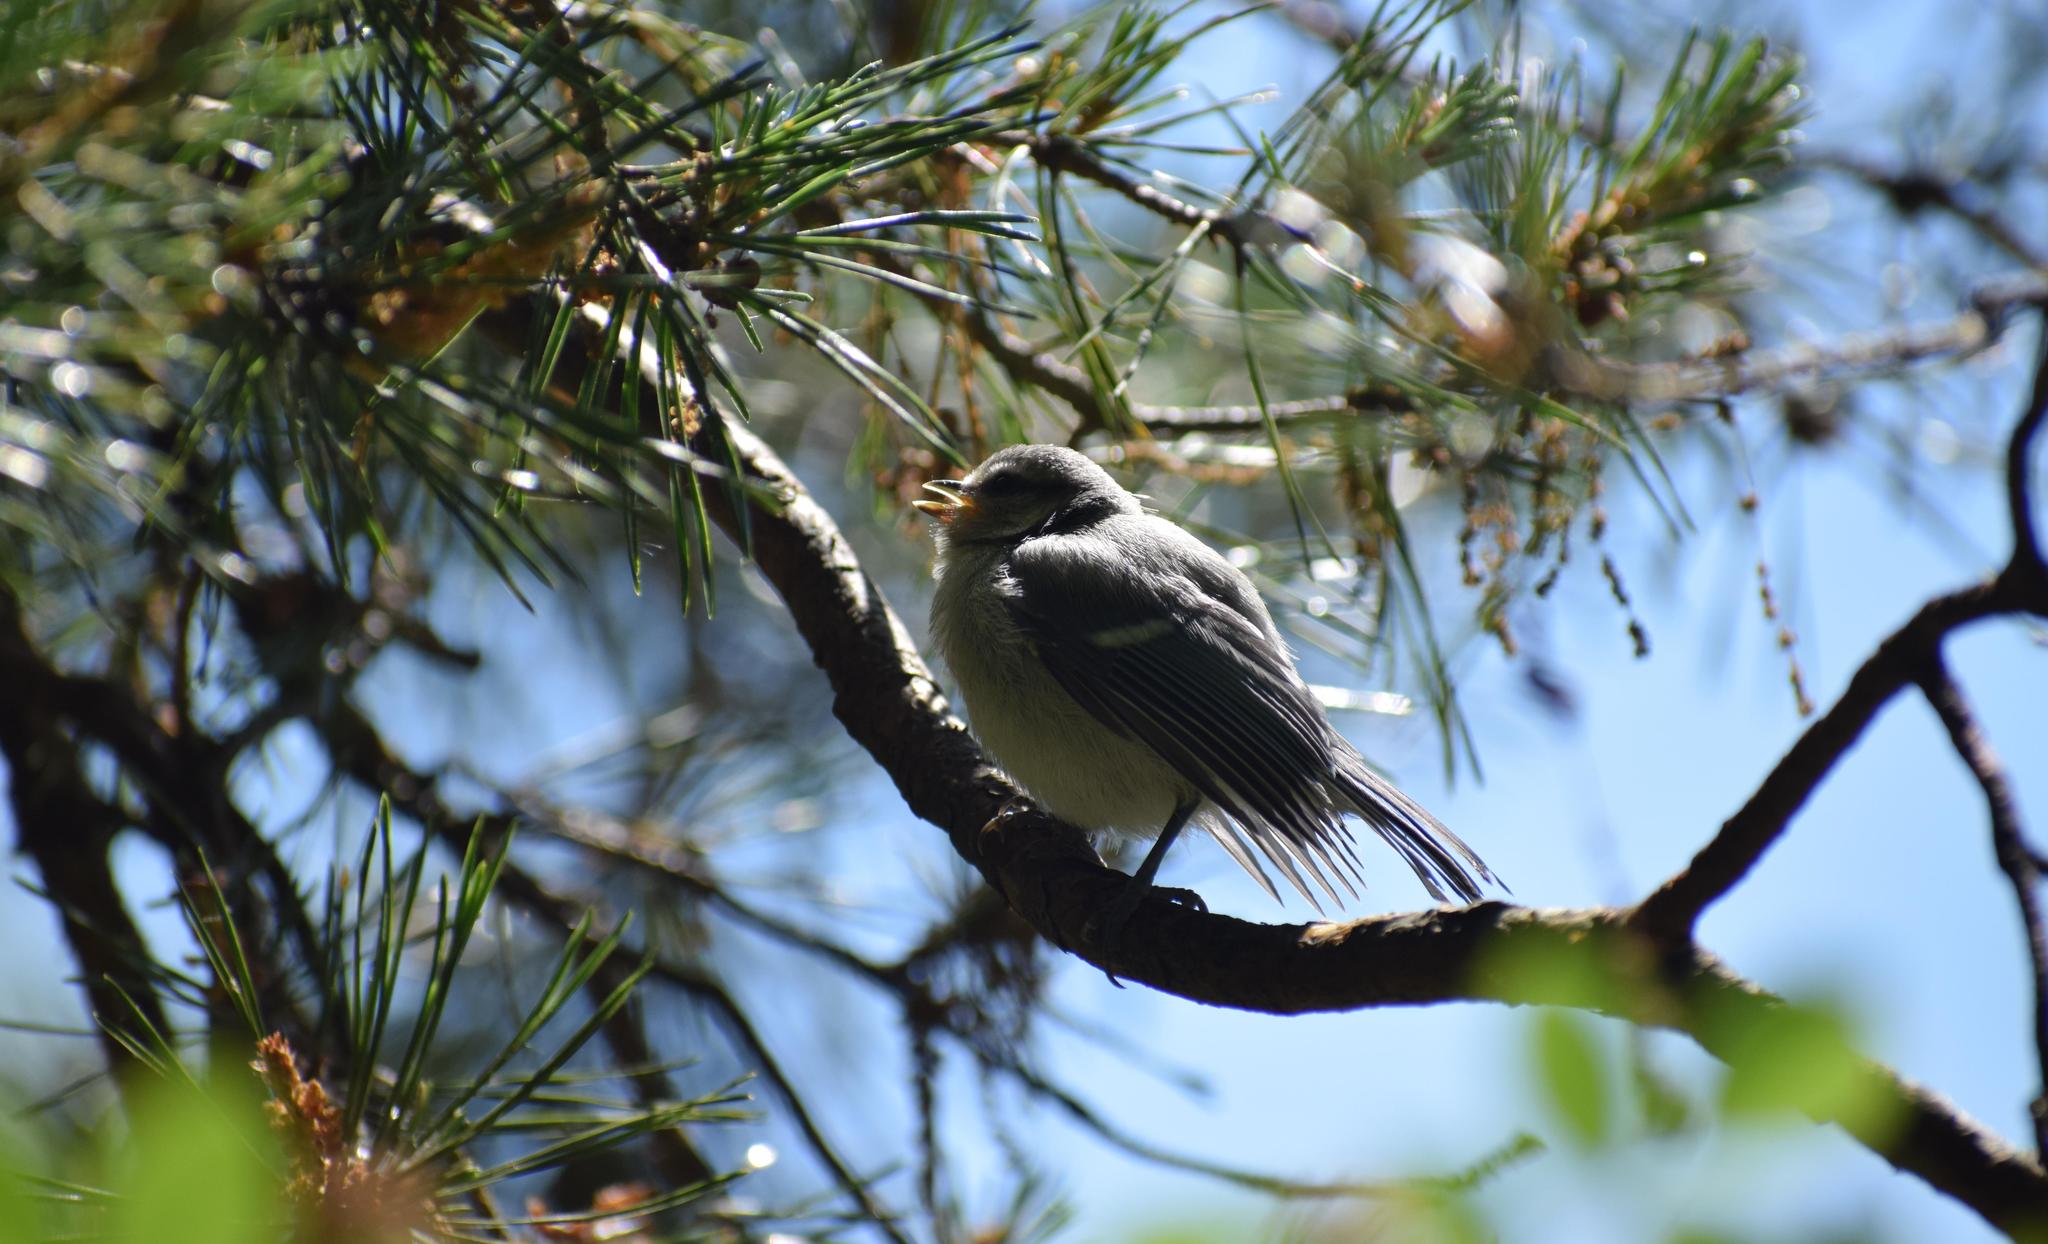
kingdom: Animalia
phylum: Chordata
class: Aves
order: Passeriformes
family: Paridae
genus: Cyanistes
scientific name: Cyanistes caeruleus
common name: Eurasian blue tit
